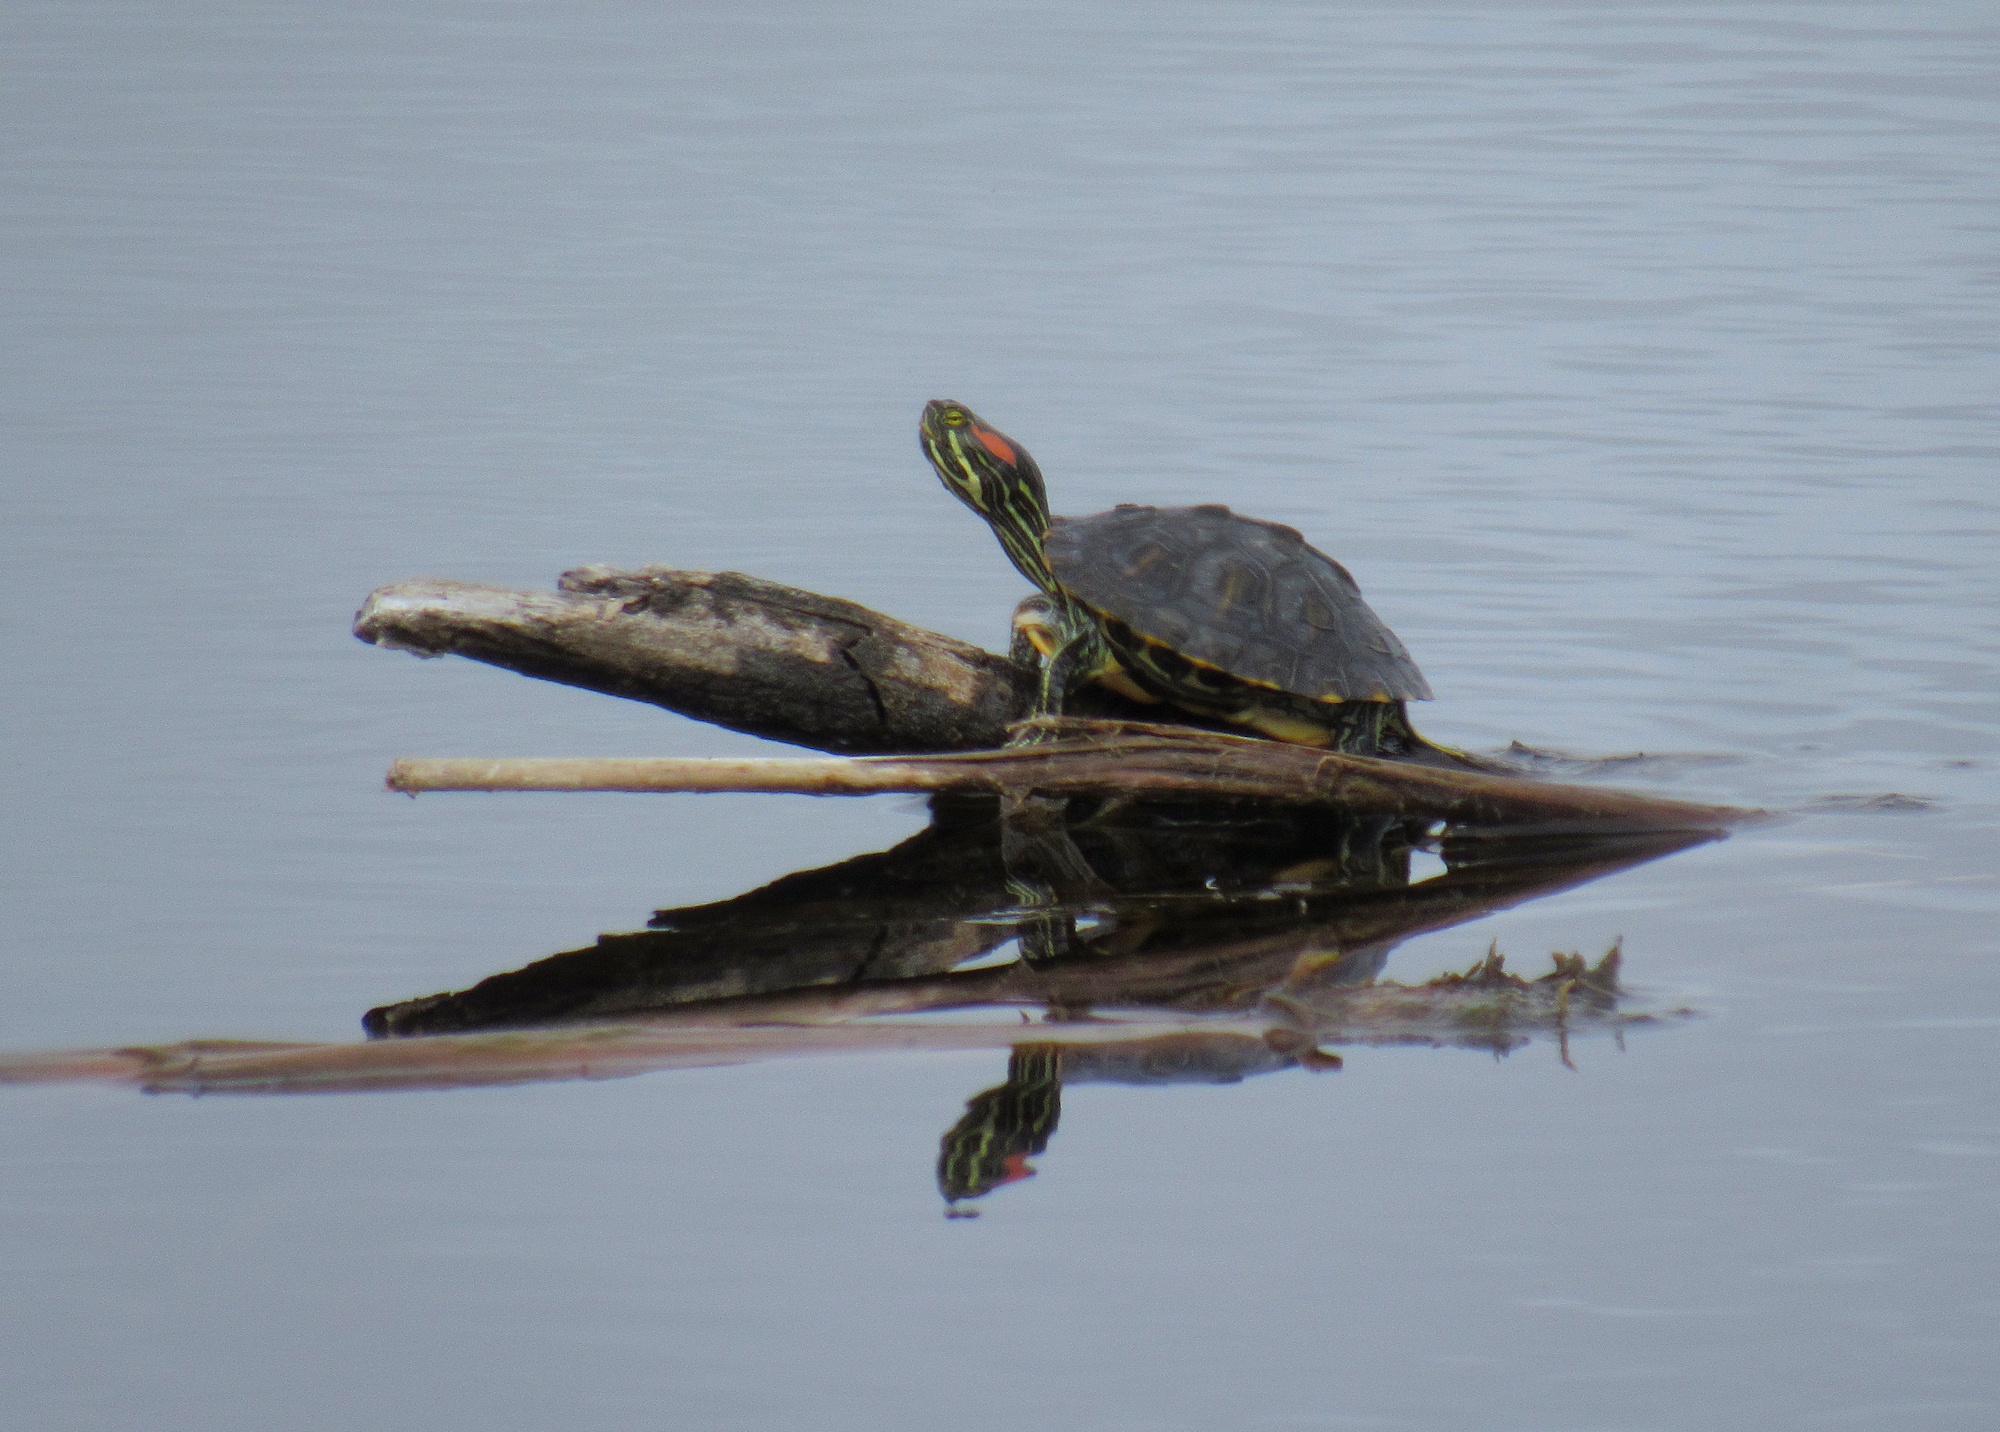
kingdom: Animalia
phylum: Chordata
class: Testudines
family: Emydidae
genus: Trachemys
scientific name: Trachemys scripta
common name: Slider
